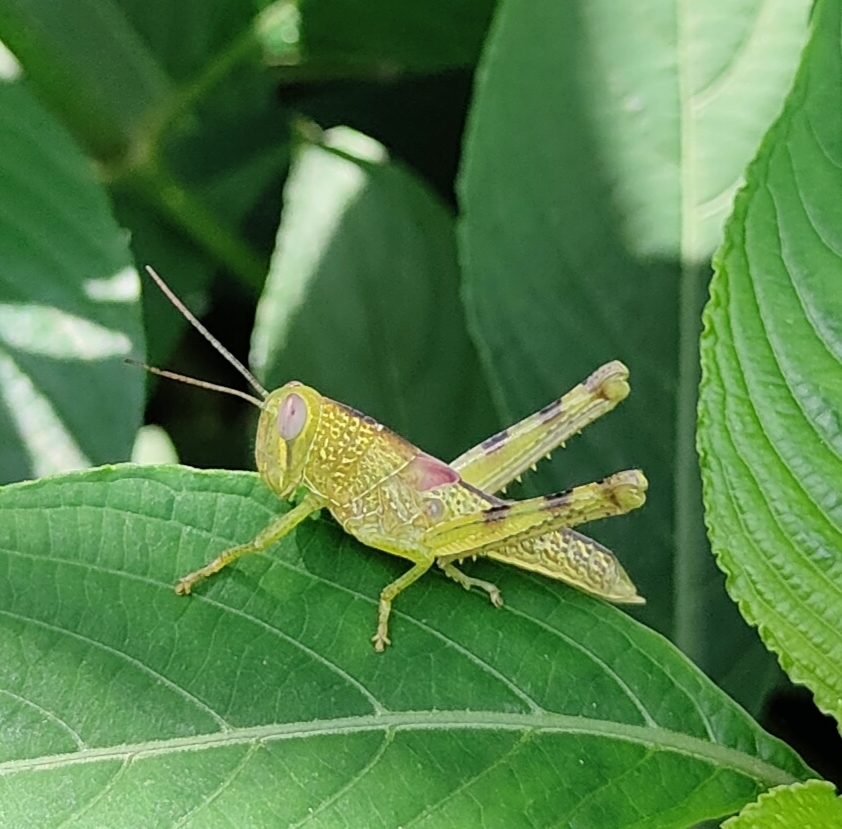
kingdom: Animalia
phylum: Arthropoda
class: Insecta
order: Orthoptera
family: Acrididae
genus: Valanga
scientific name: Valanga irregularis
